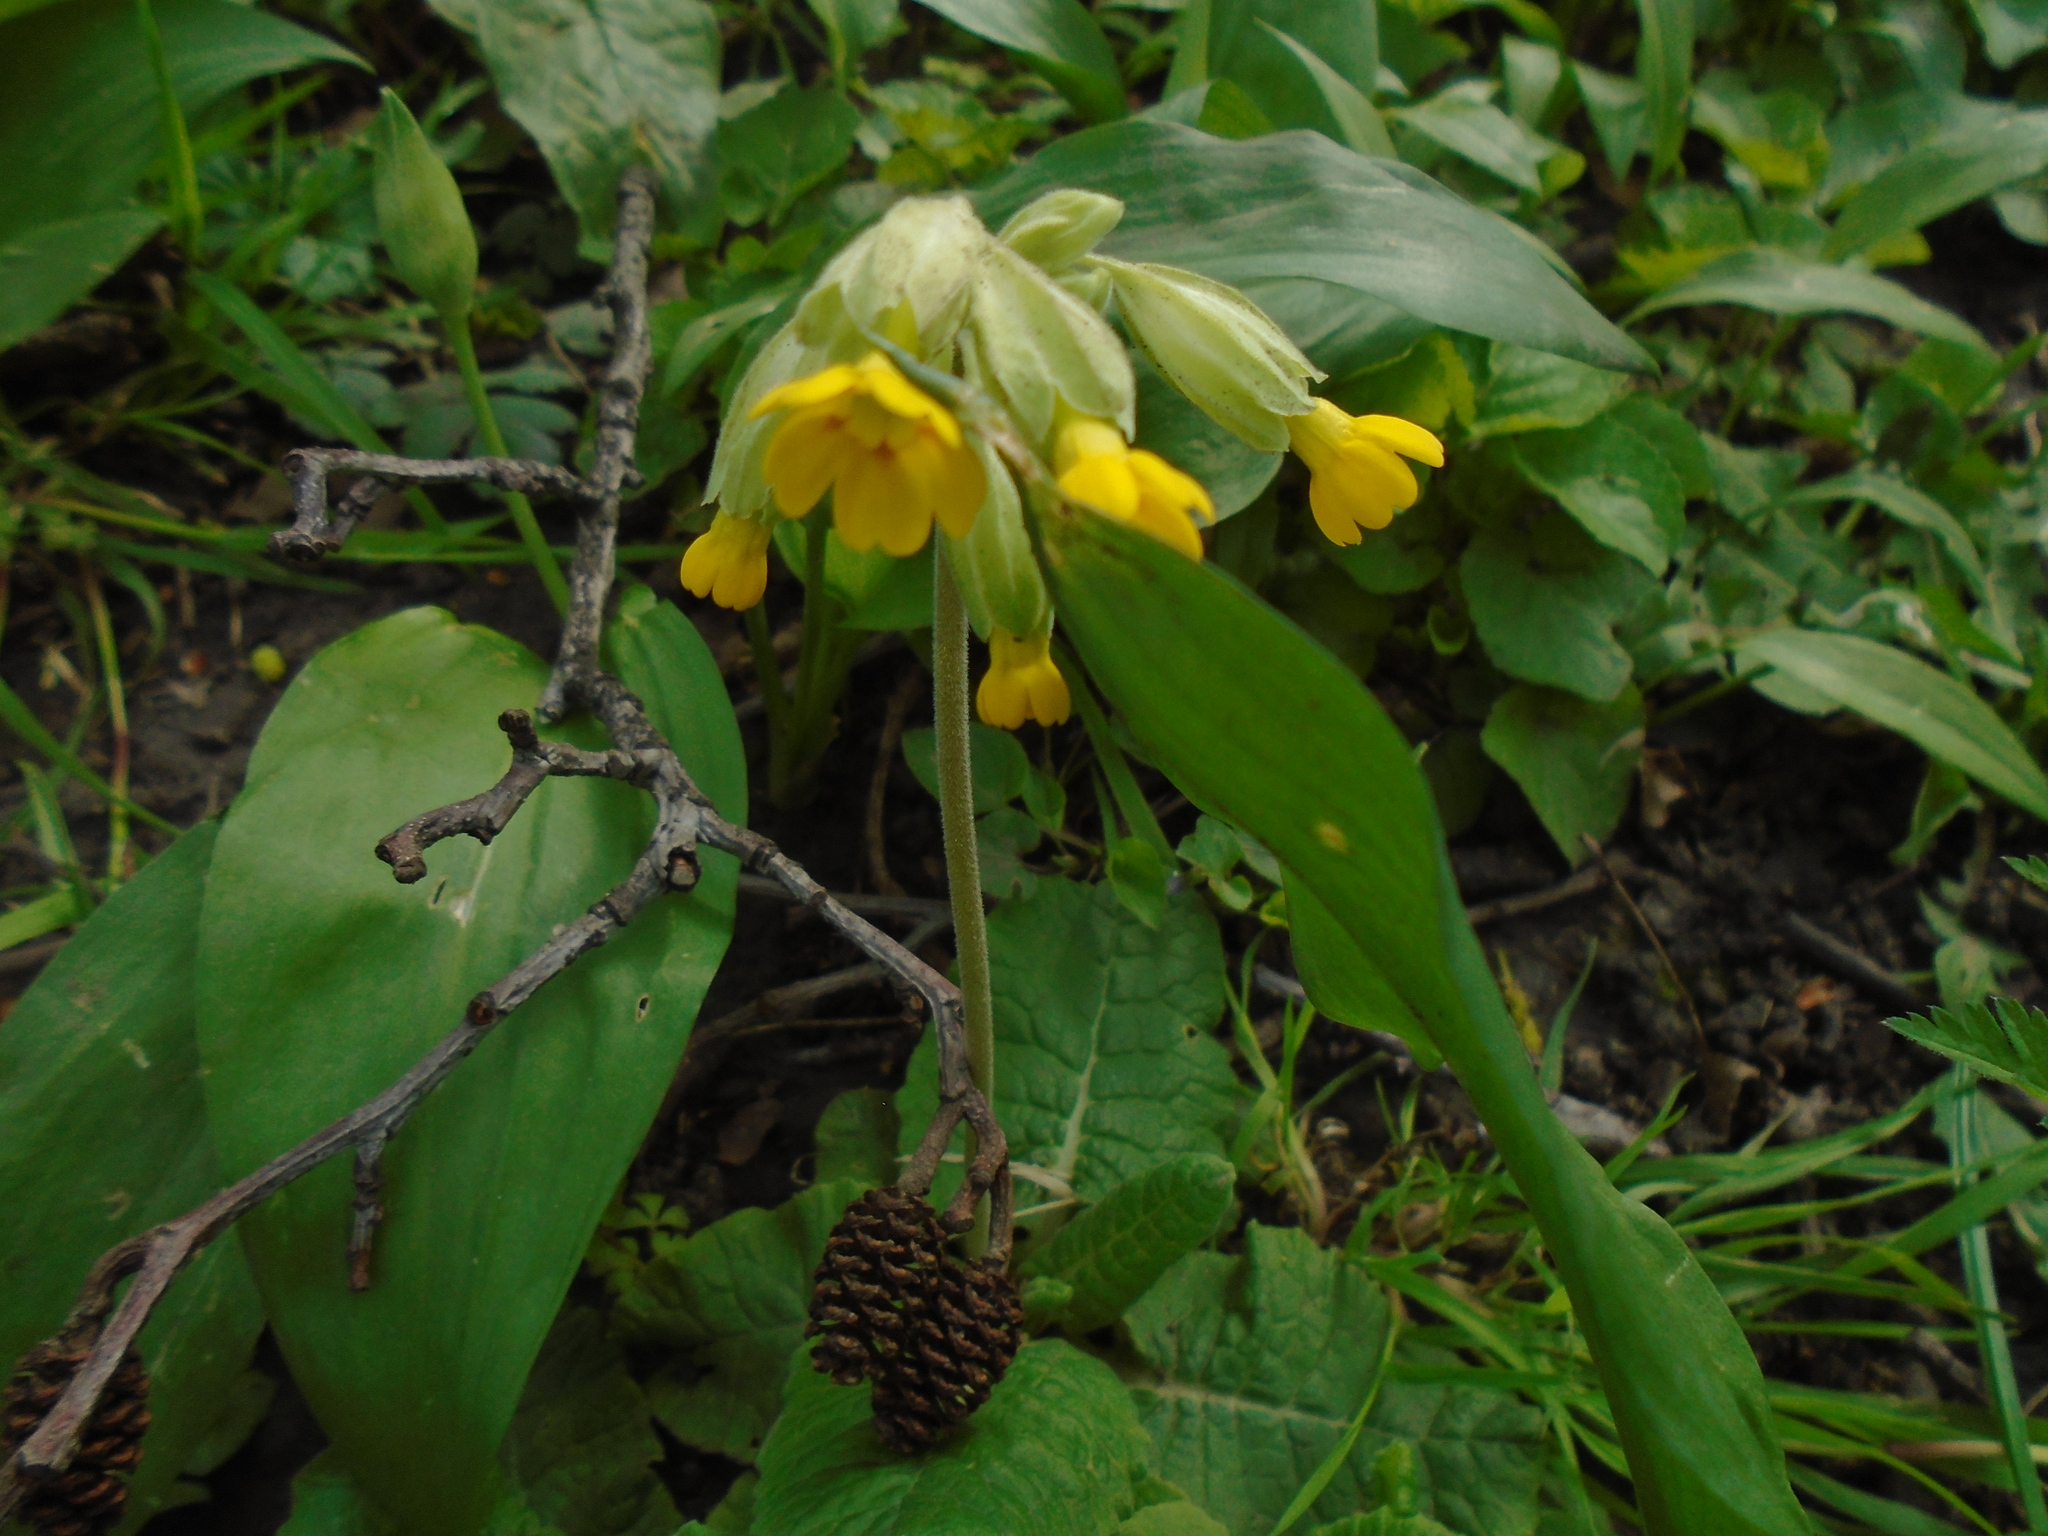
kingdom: Plantae
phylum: Tracheophyta
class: Magnoliopsida
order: Ericales
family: Primulaceae
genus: Primula
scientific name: Primula veris
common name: Cowslip
